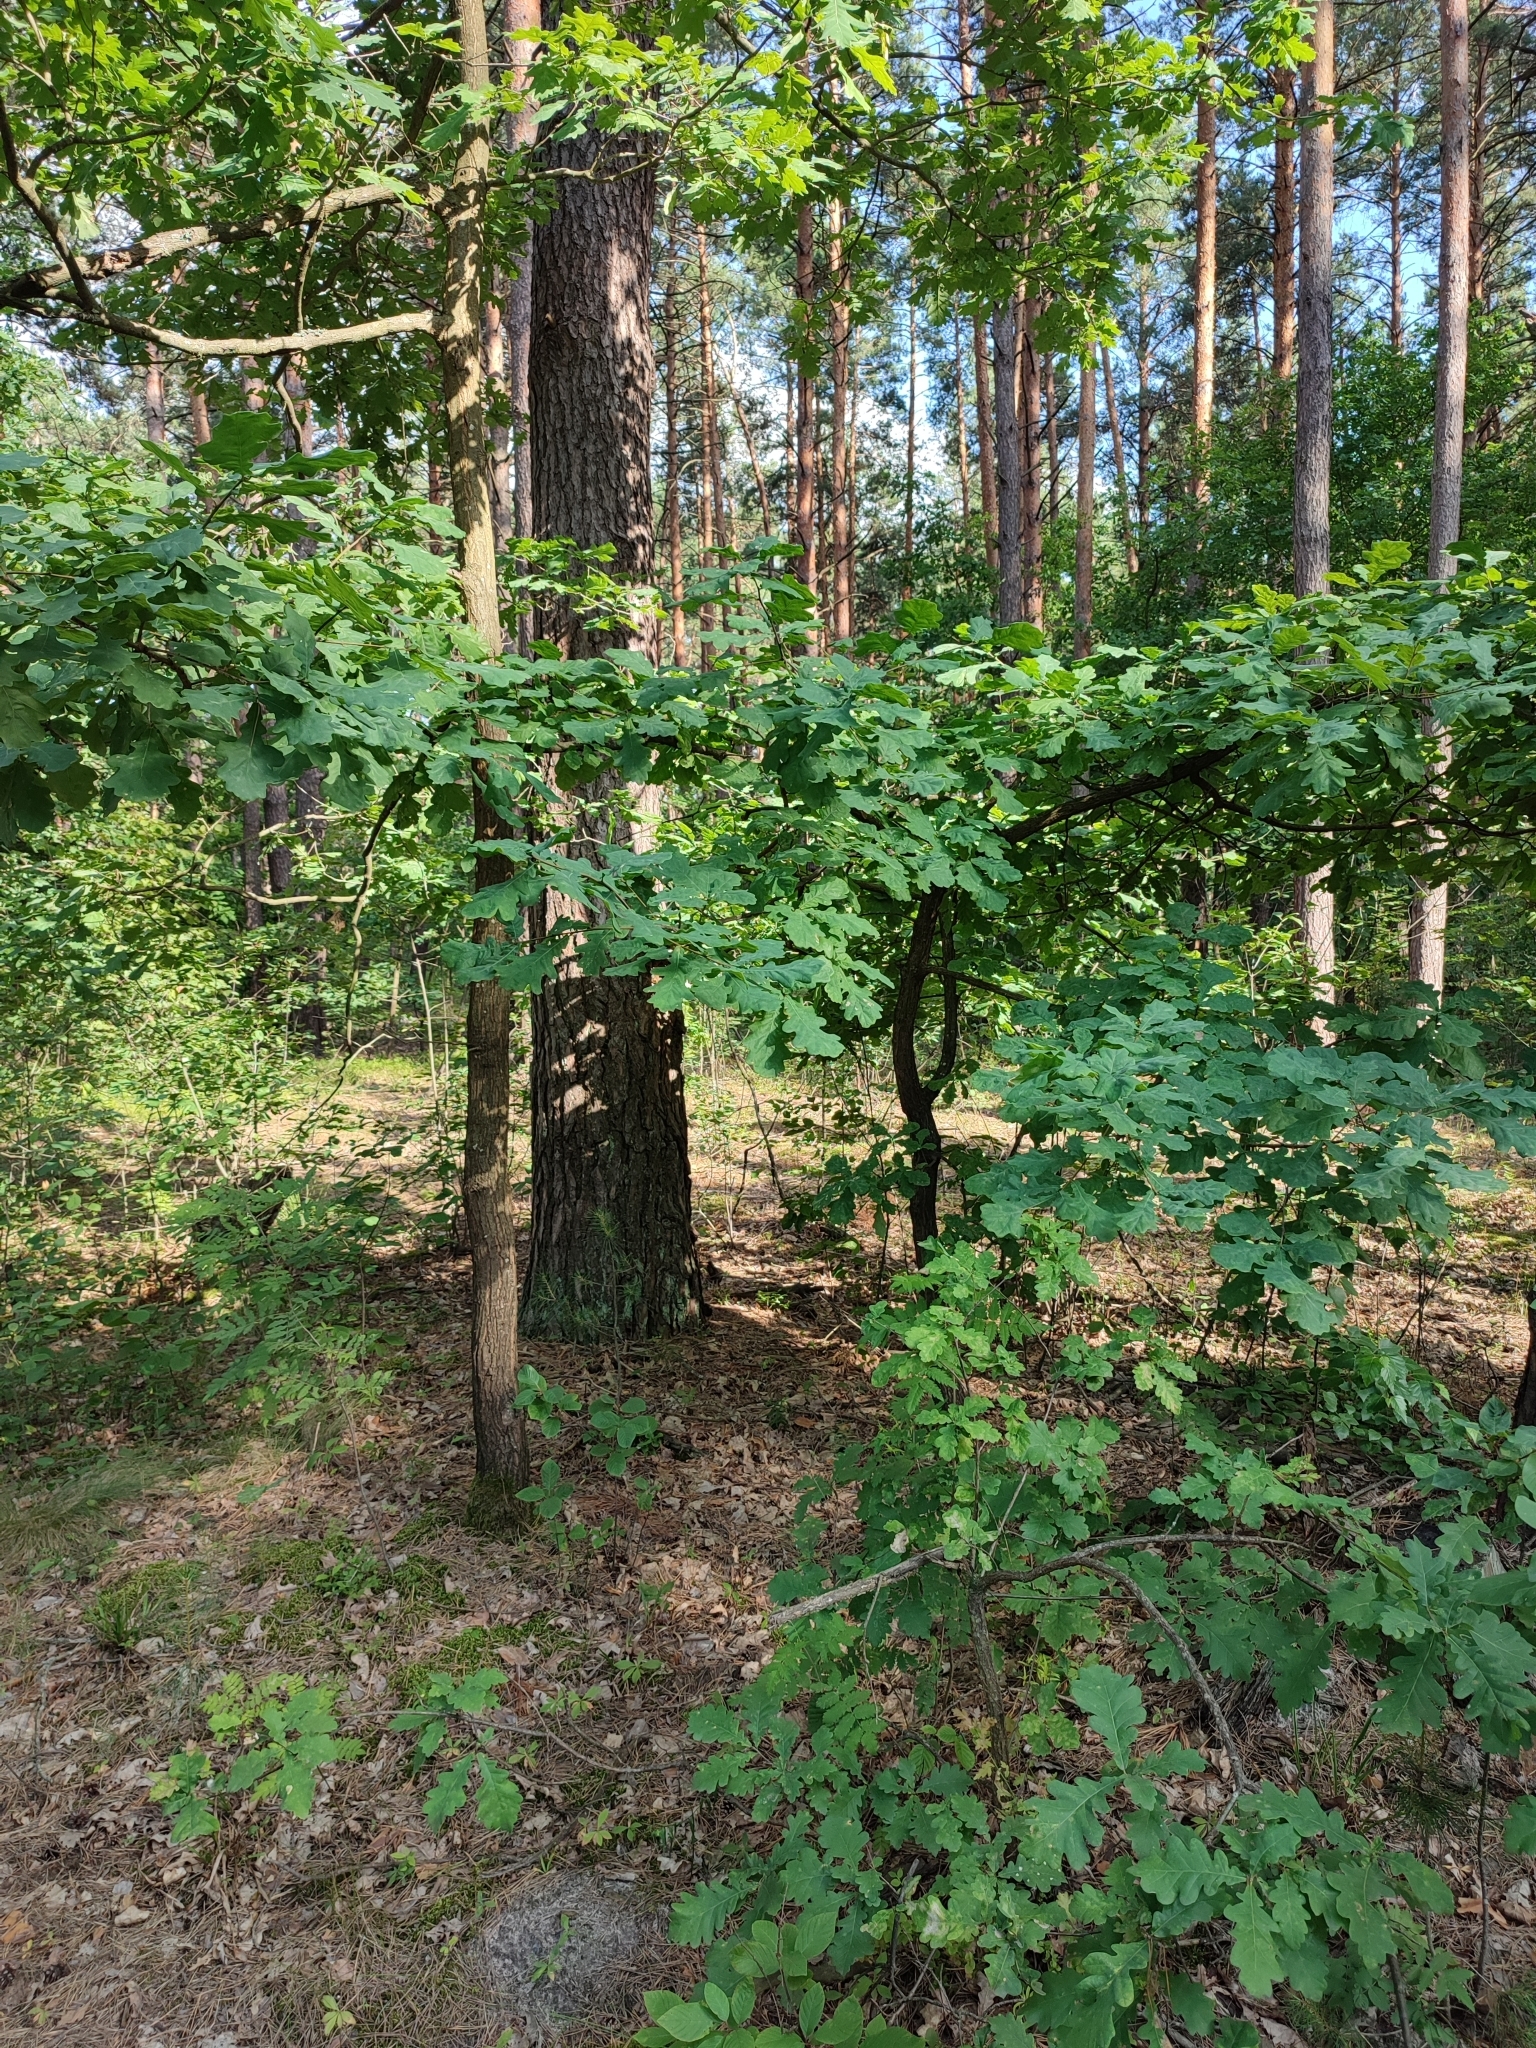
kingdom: Plantae
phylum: Tracheophyta
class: Magnoliopsida
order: Fagales
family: Fagaceae
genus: Quercus
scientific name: Quercus robur
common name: Pedunculate oak
